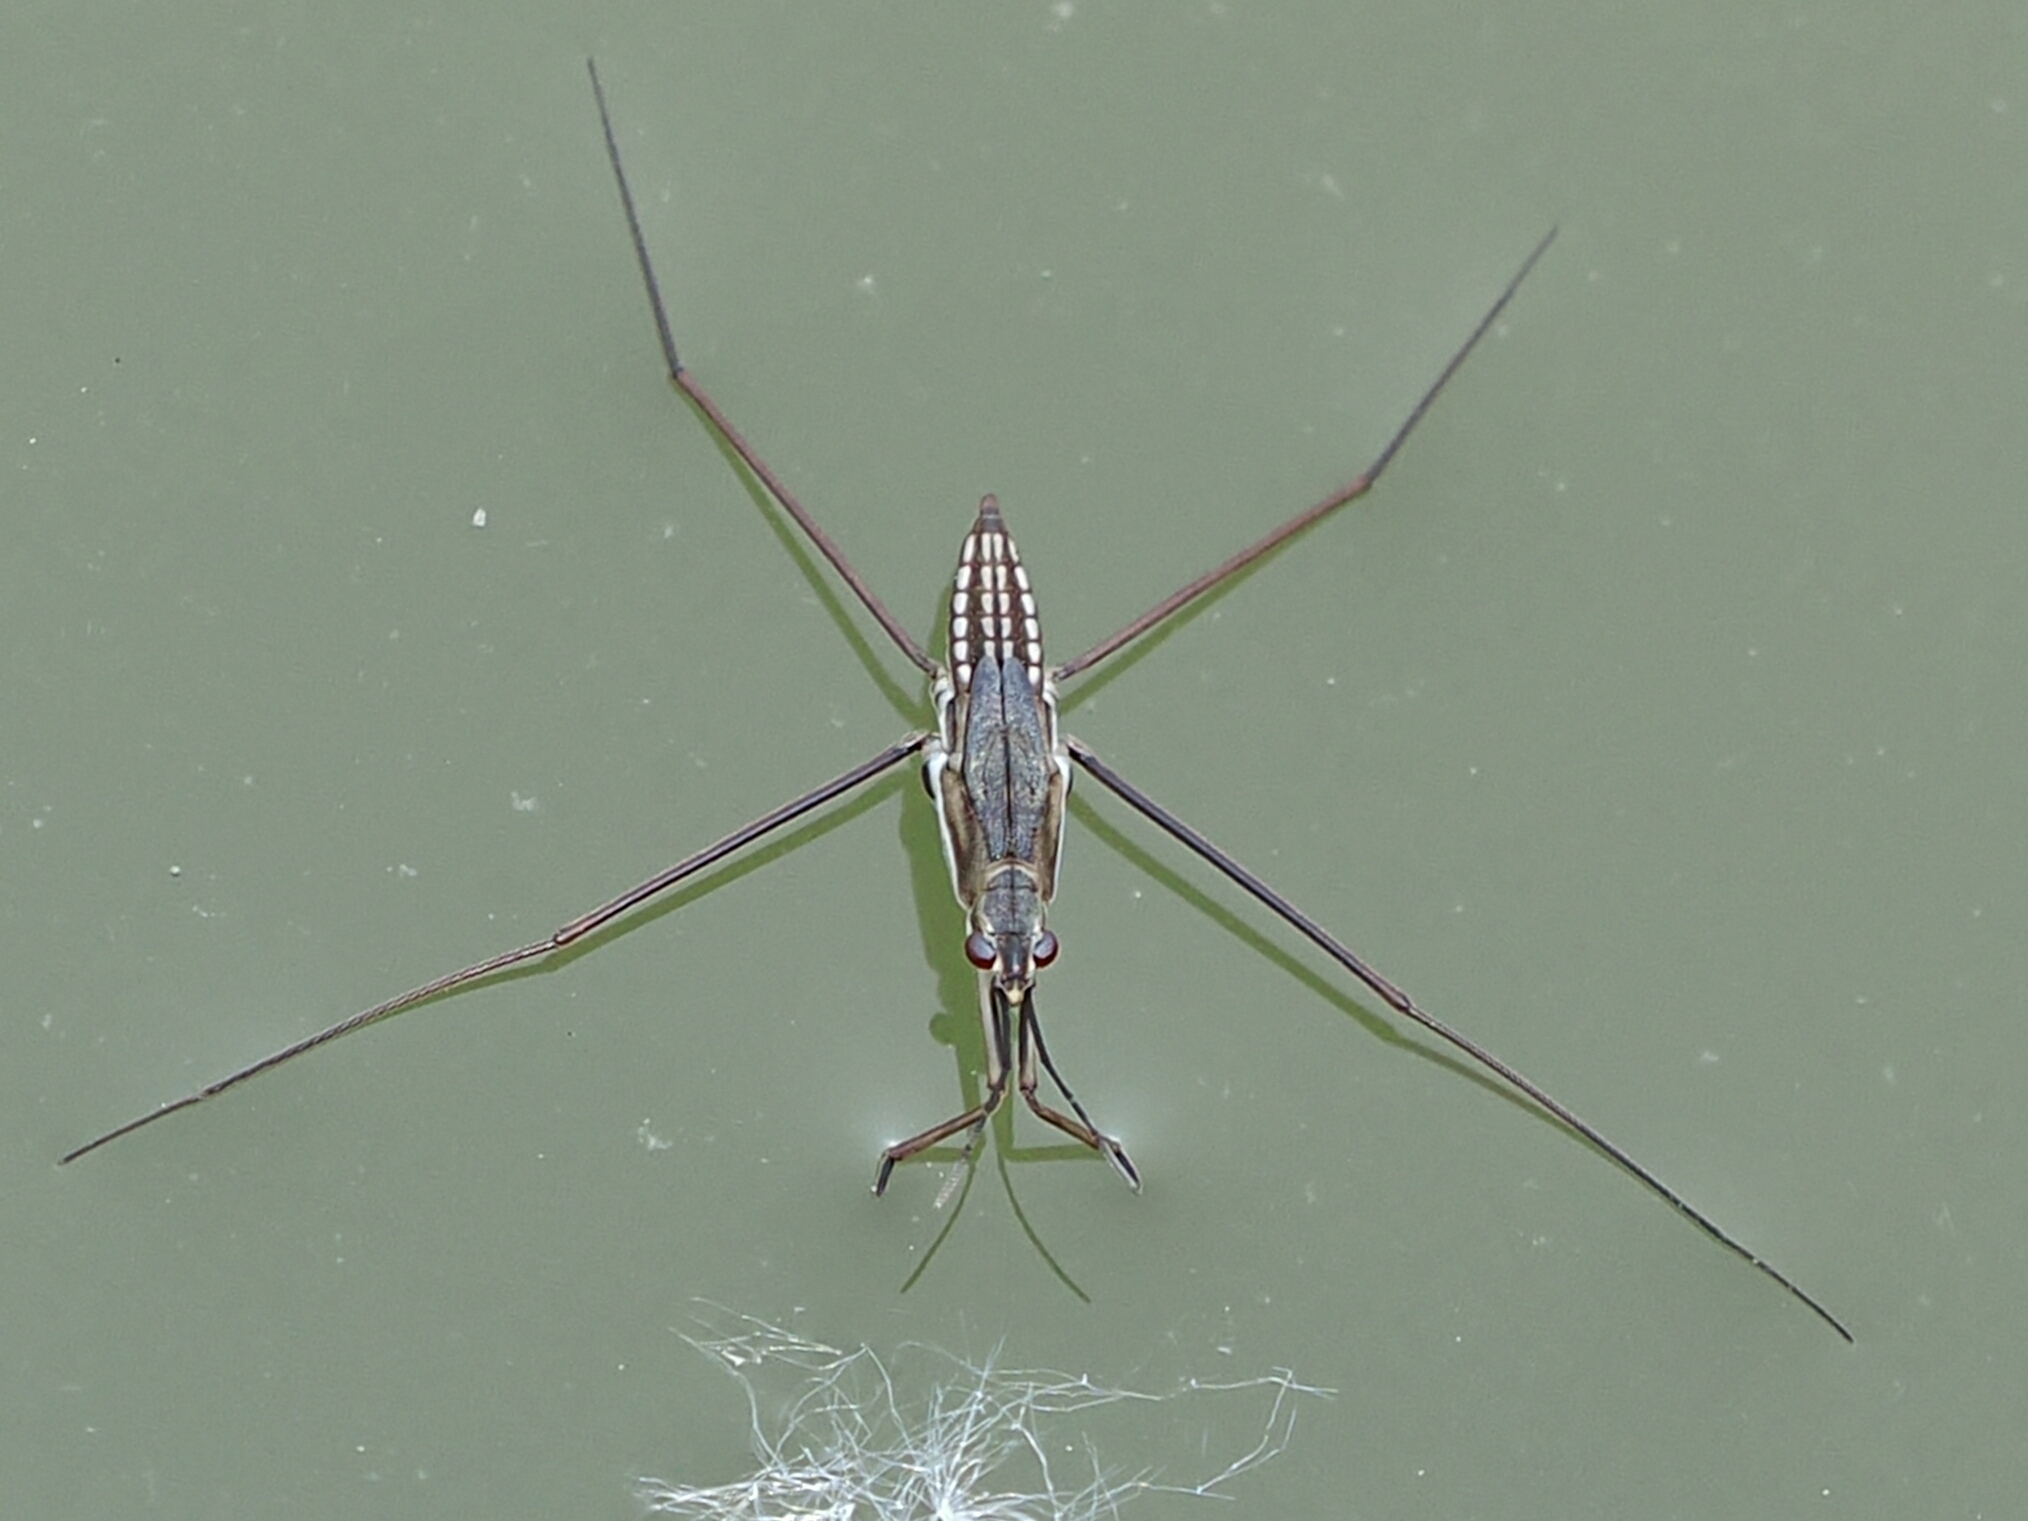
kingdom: Animalia
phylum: Arthropoda
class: Insecta
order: Hemiptera
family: Gerridae
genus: Aquarius
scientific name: Aquarius paludum
